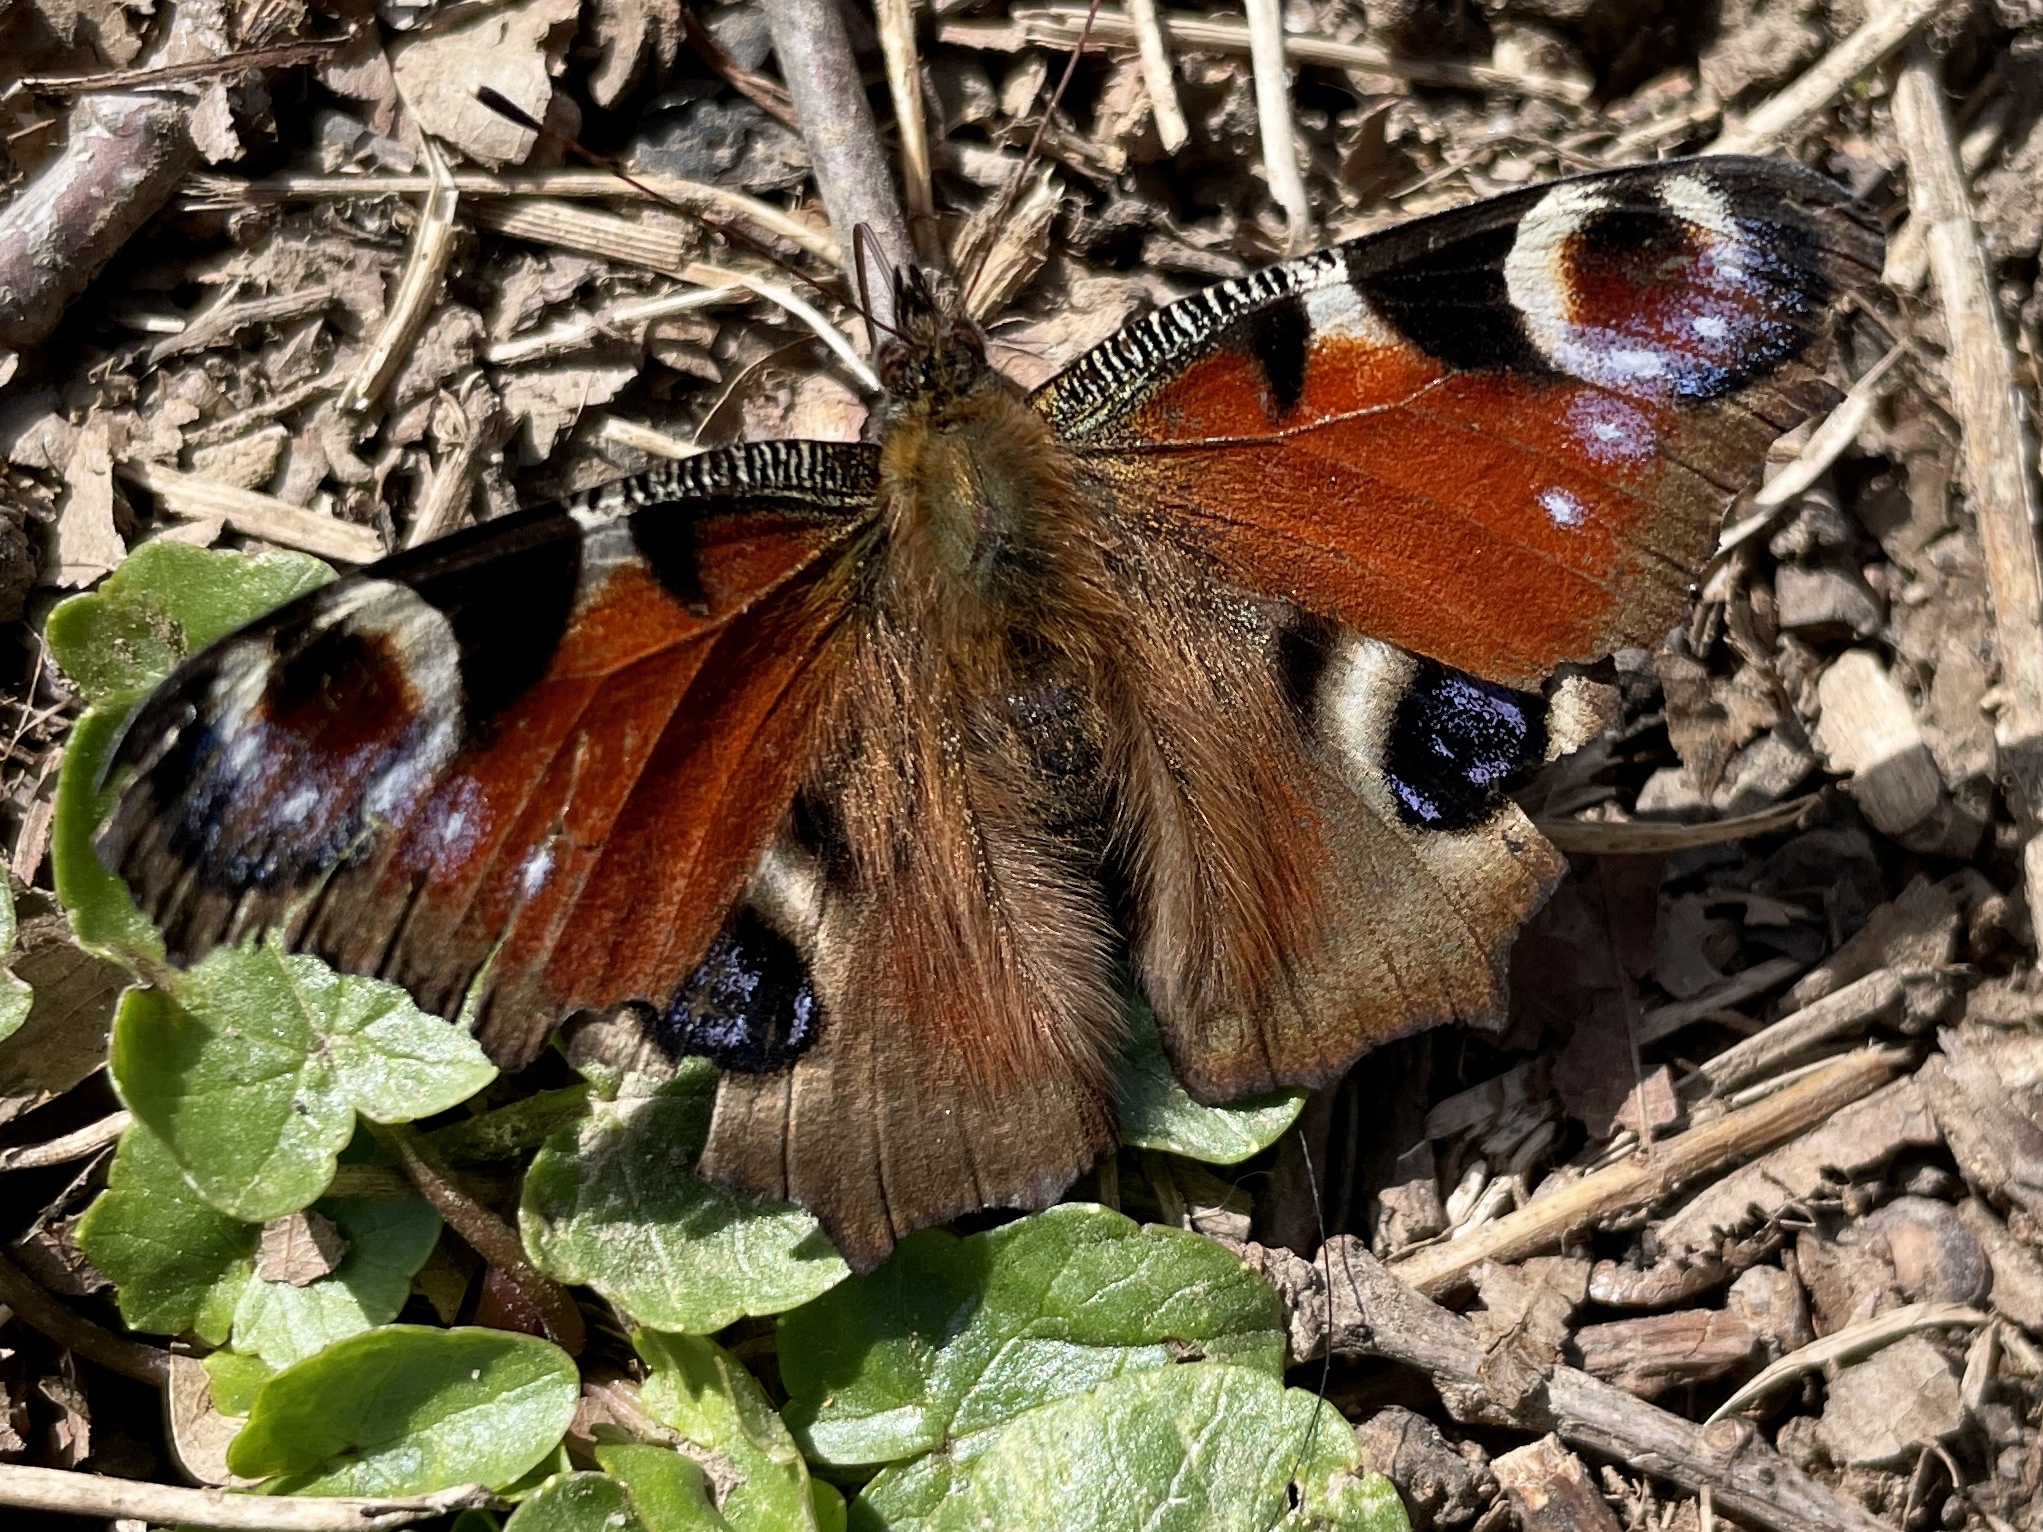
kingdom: Animalia
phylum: Arthropoda
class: Insecta
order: Lepidoptera
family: Nymphalidae
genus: Aglais
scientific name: Aglais io
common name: Peacock
